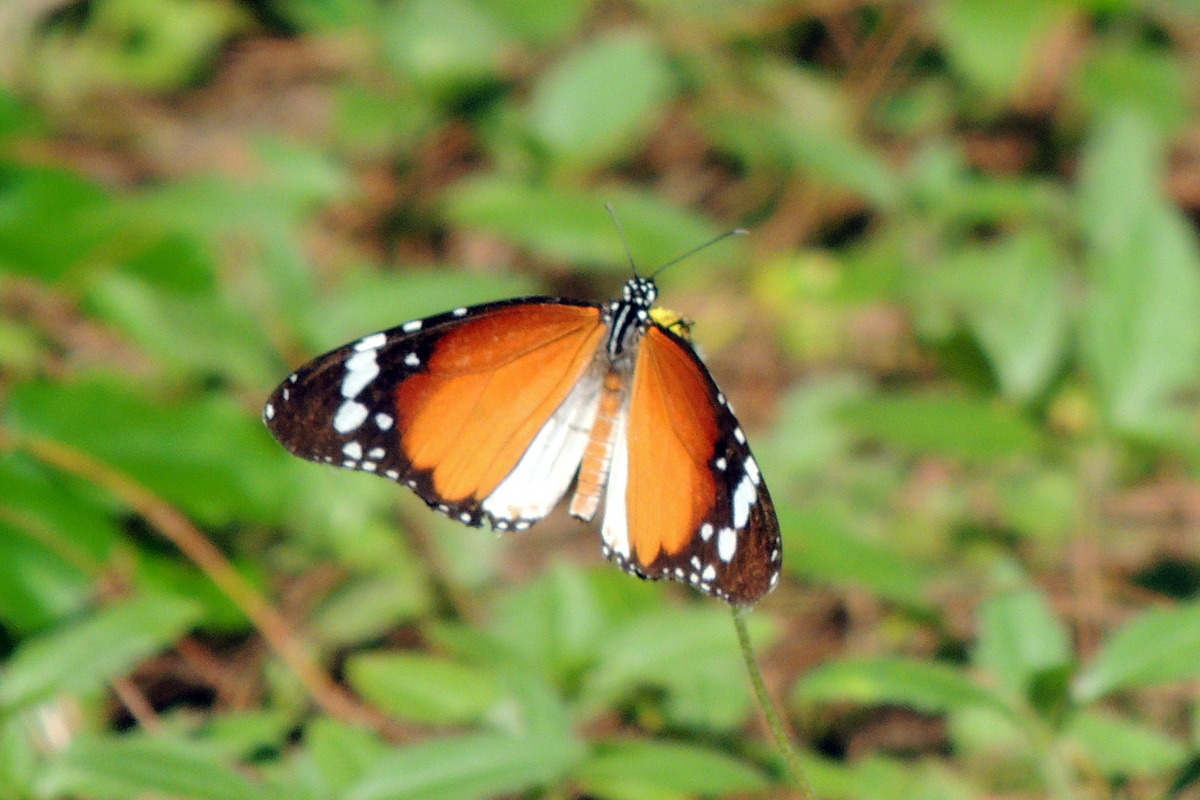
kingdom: Animalia
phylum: Arthropoda
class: Insecta
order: Lepidoptera
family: Nymphalidae
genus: Danaus
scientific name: Danaus chrysippus
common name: Plain tiger
